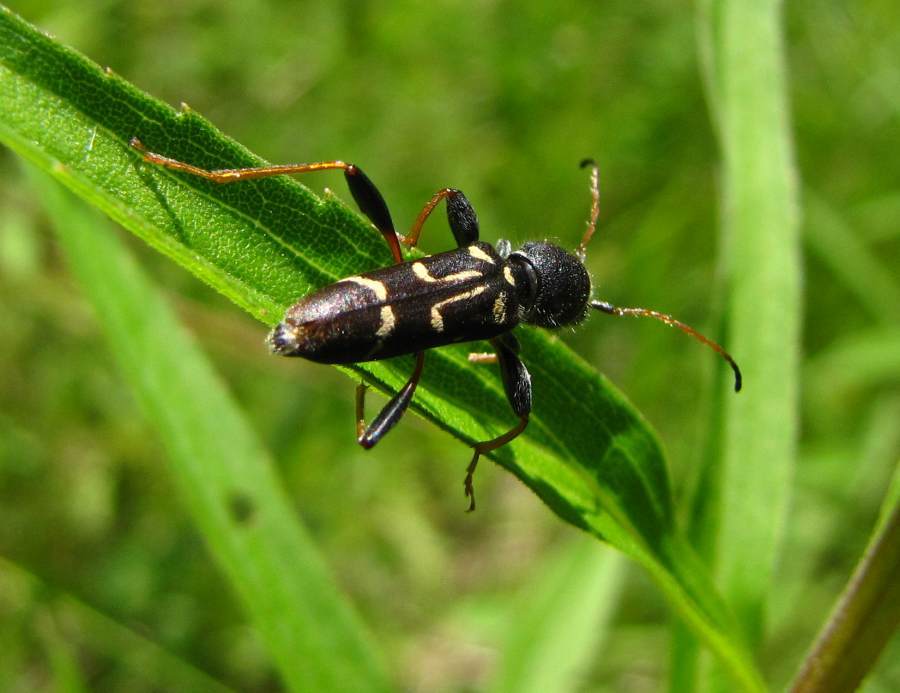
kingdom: Animalia
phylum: Arthropoda
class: Insecta
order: Coleoptera
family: Cerambycidae
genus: Clytus
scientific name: Clytus ruricola
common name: Round-necked longhorn beetle
